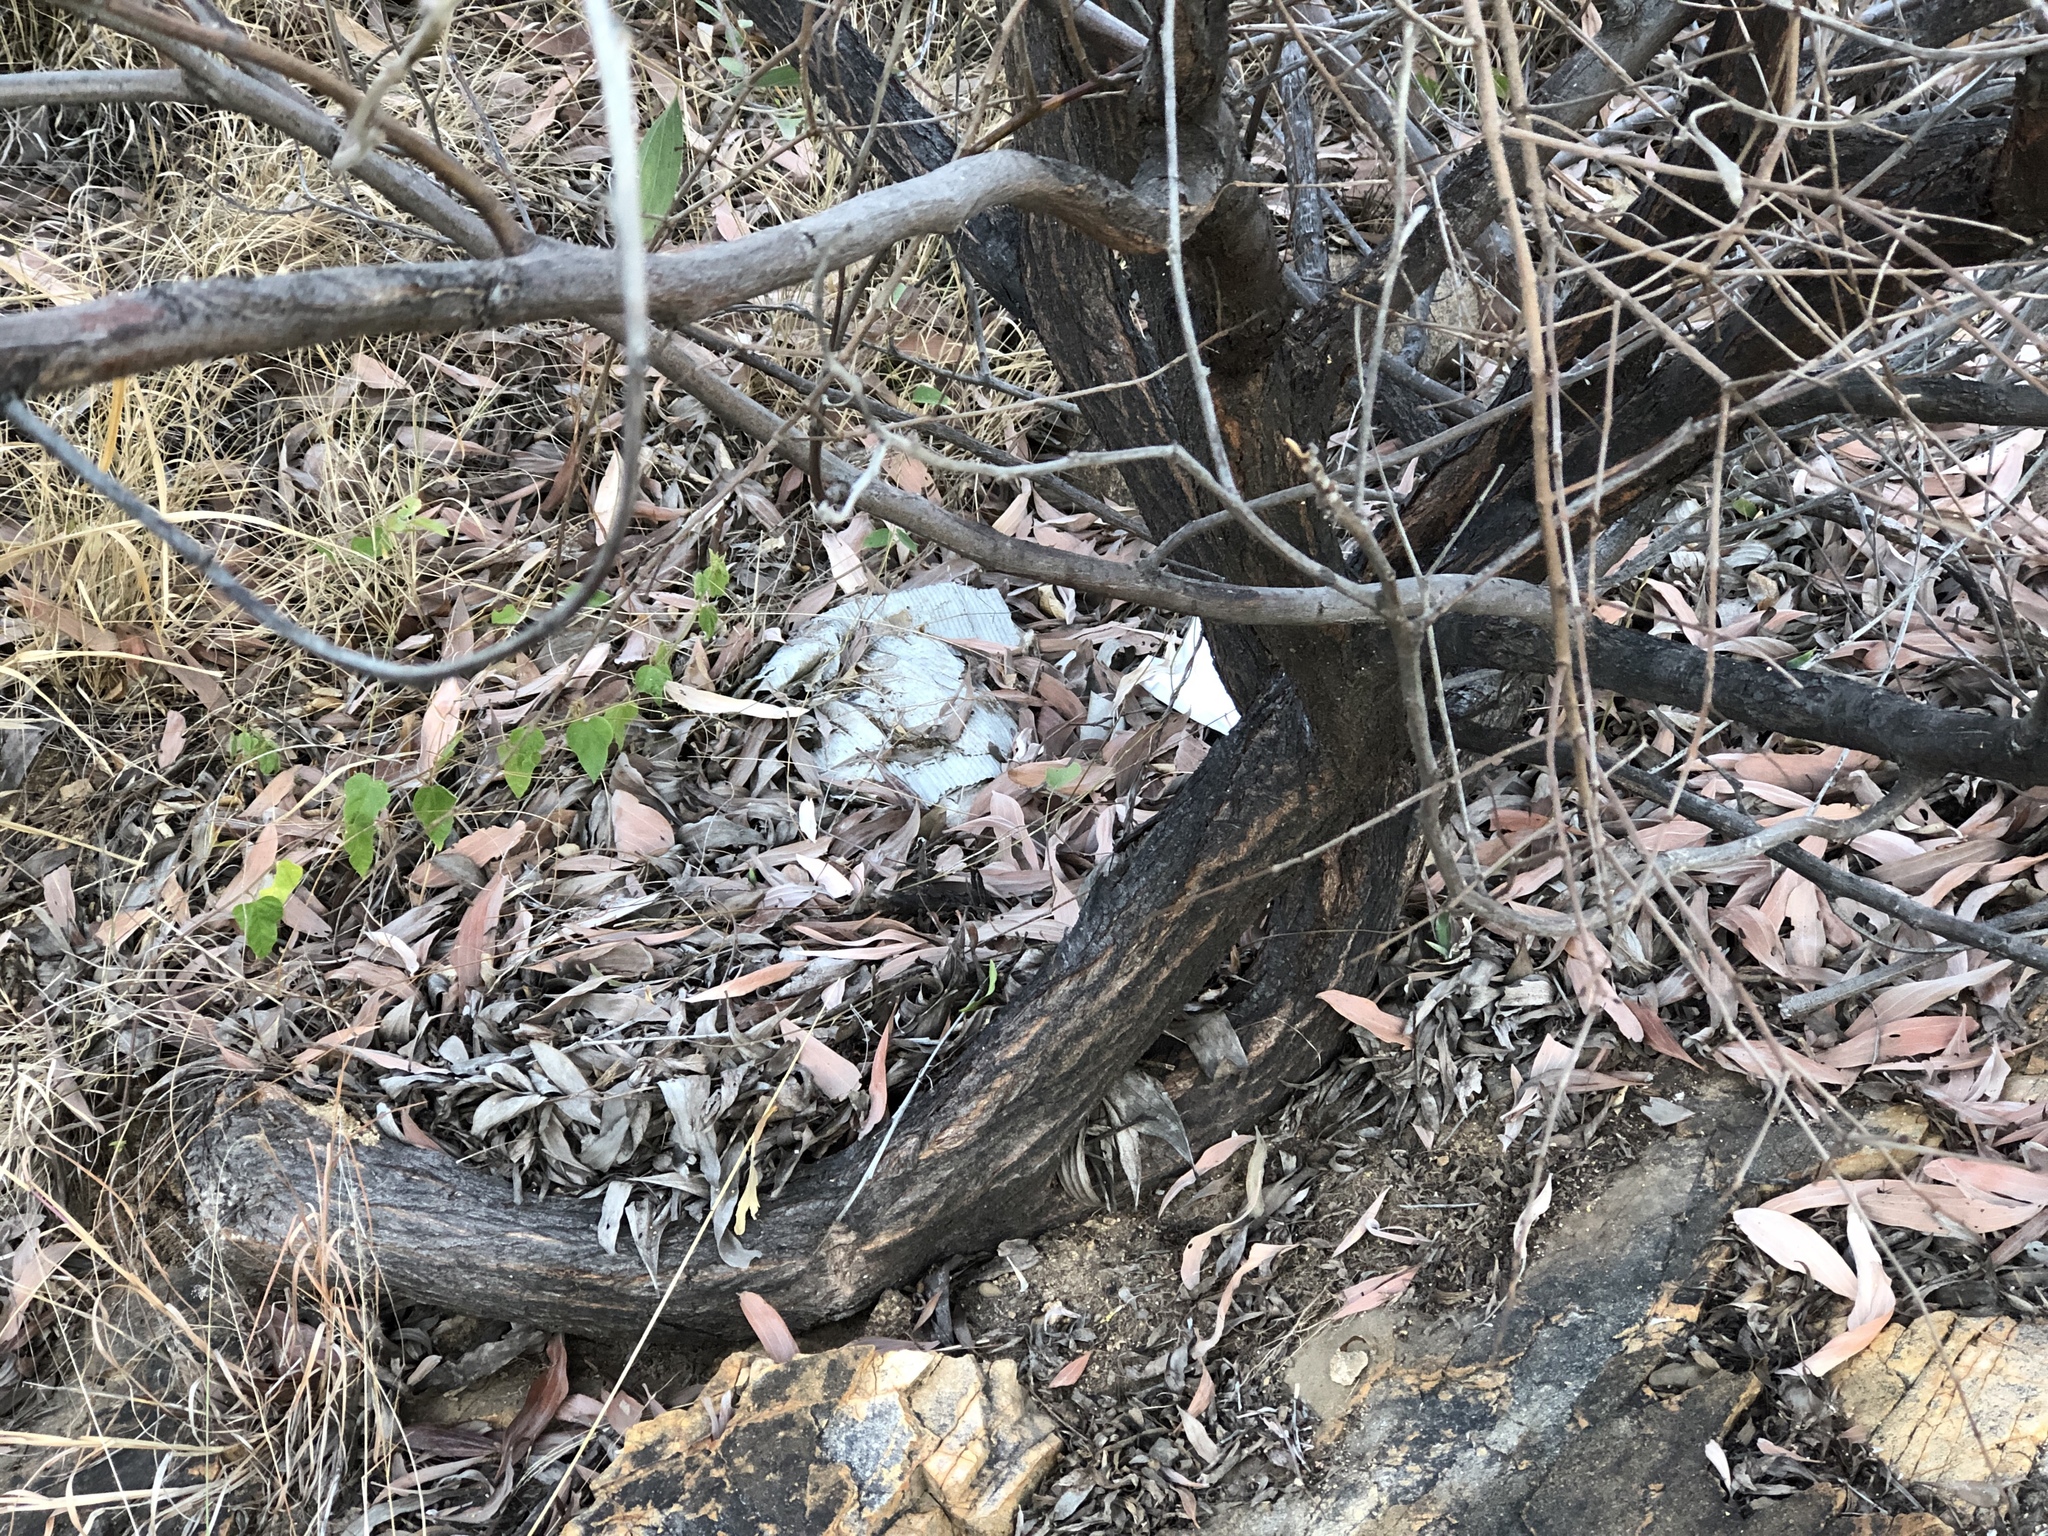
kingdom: Plantae
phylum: Tracheophyta
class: Magnoliopsida
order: Fabales
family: Fabaceae
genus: Acacia
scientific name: Acacia holosericea
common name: Candelabra wattle
